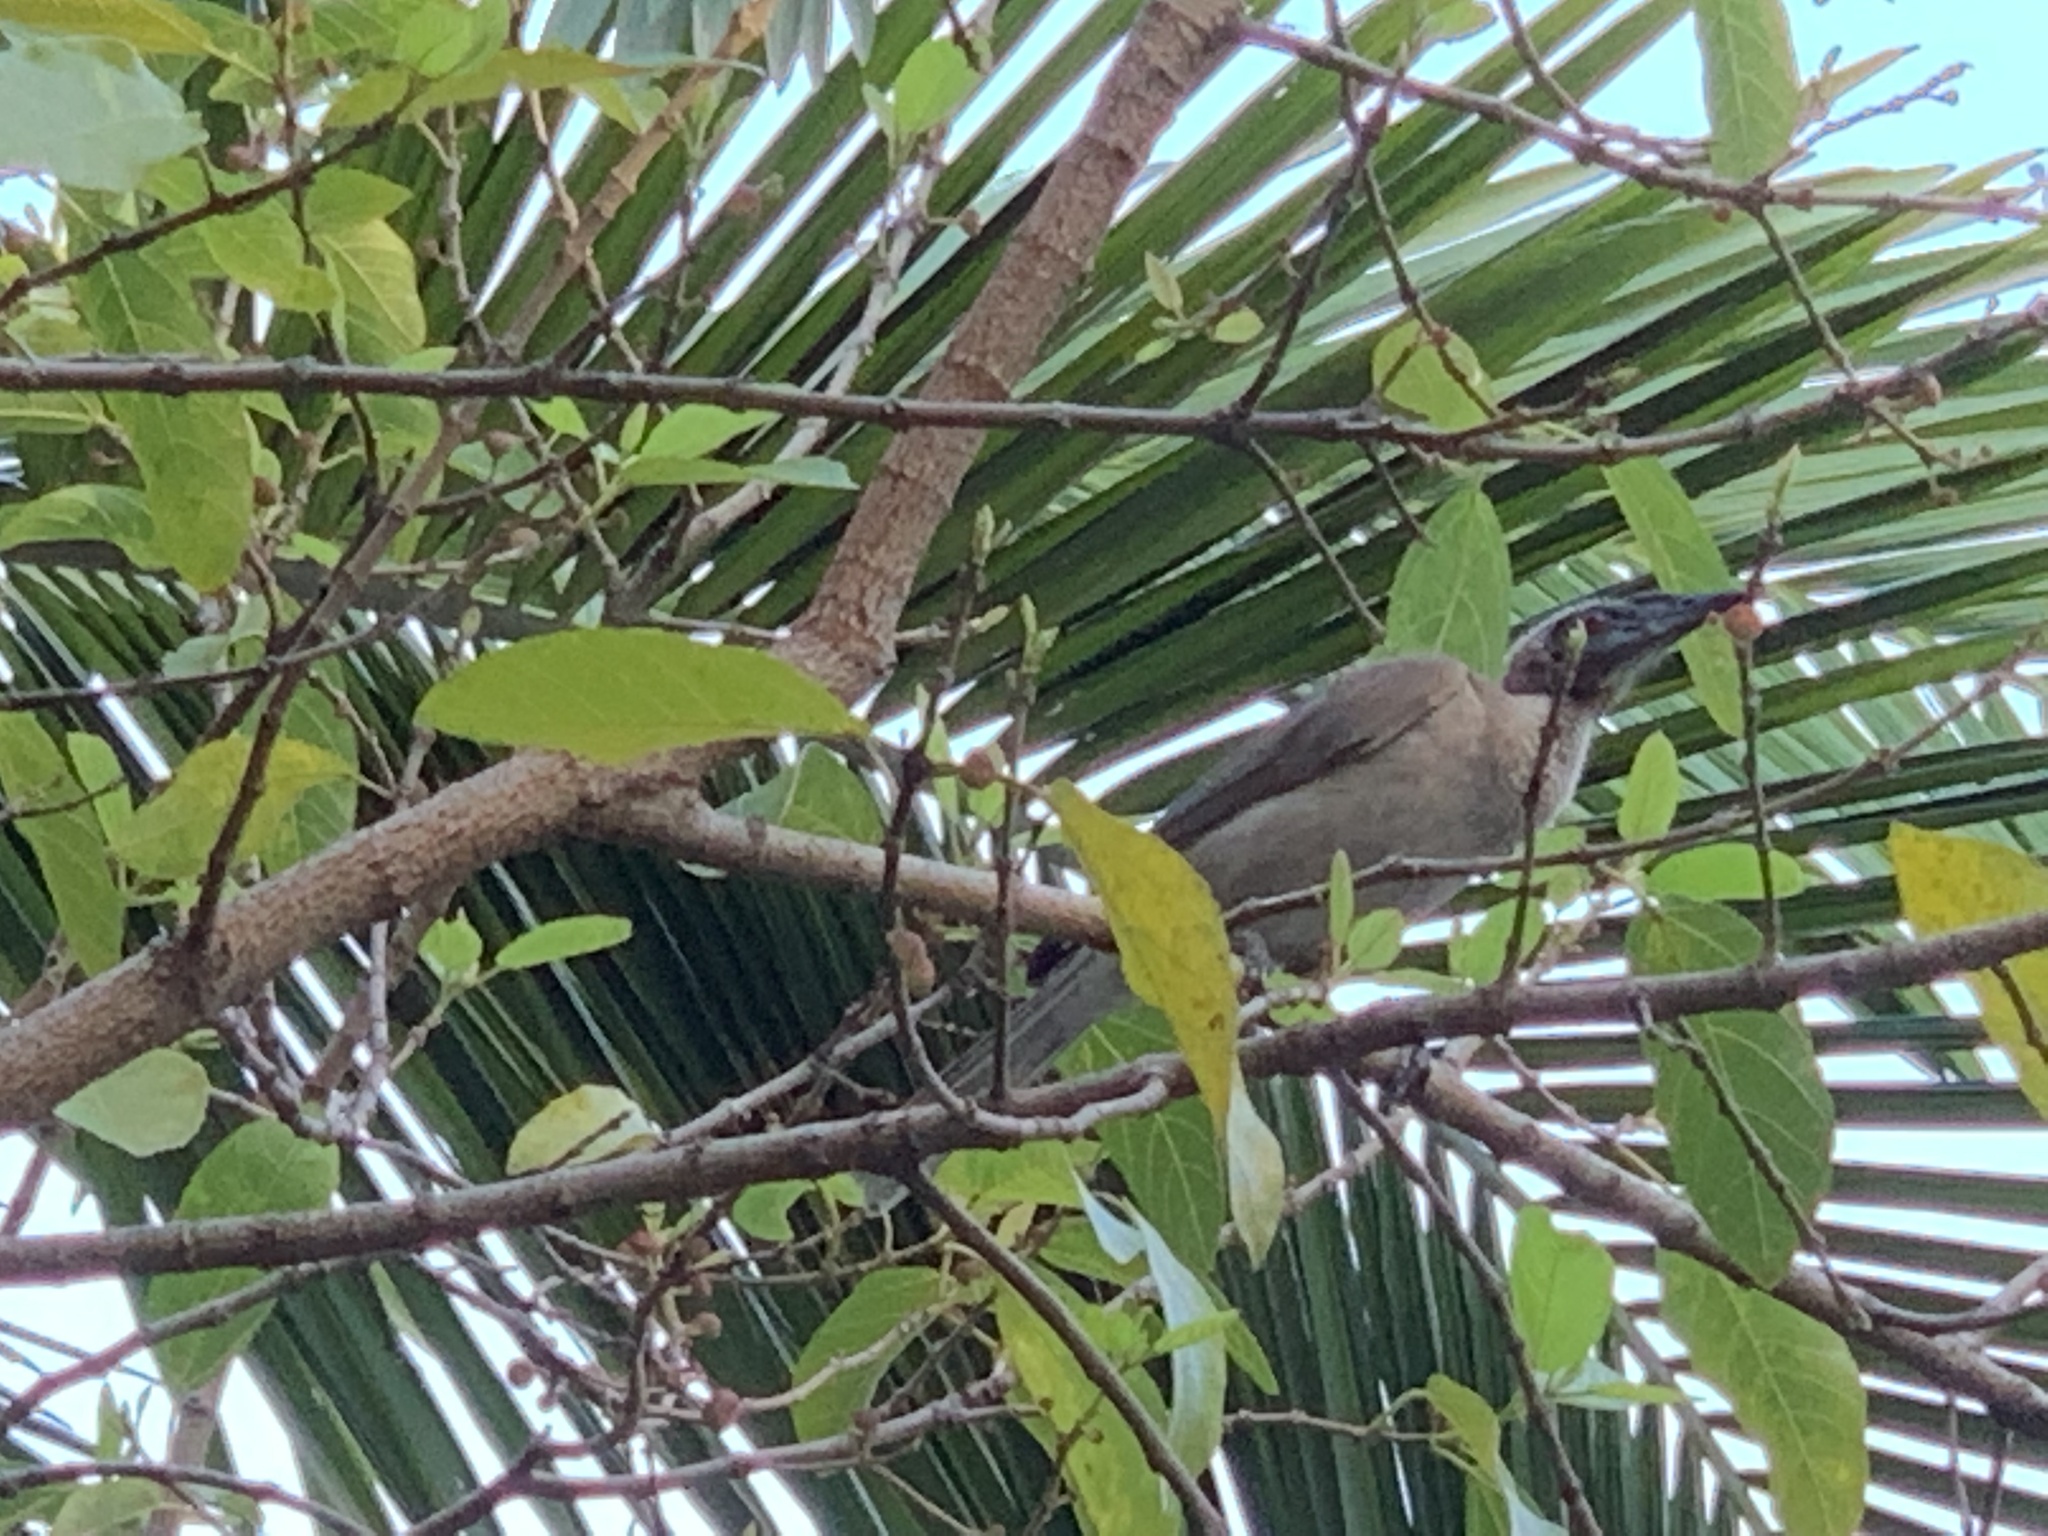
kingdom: Animalia
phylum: Chordata
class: Aves
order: Passeriformes
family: Meliphagidae
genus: Philemon
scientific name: Philemon yorki
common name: Hornbill friarbird
